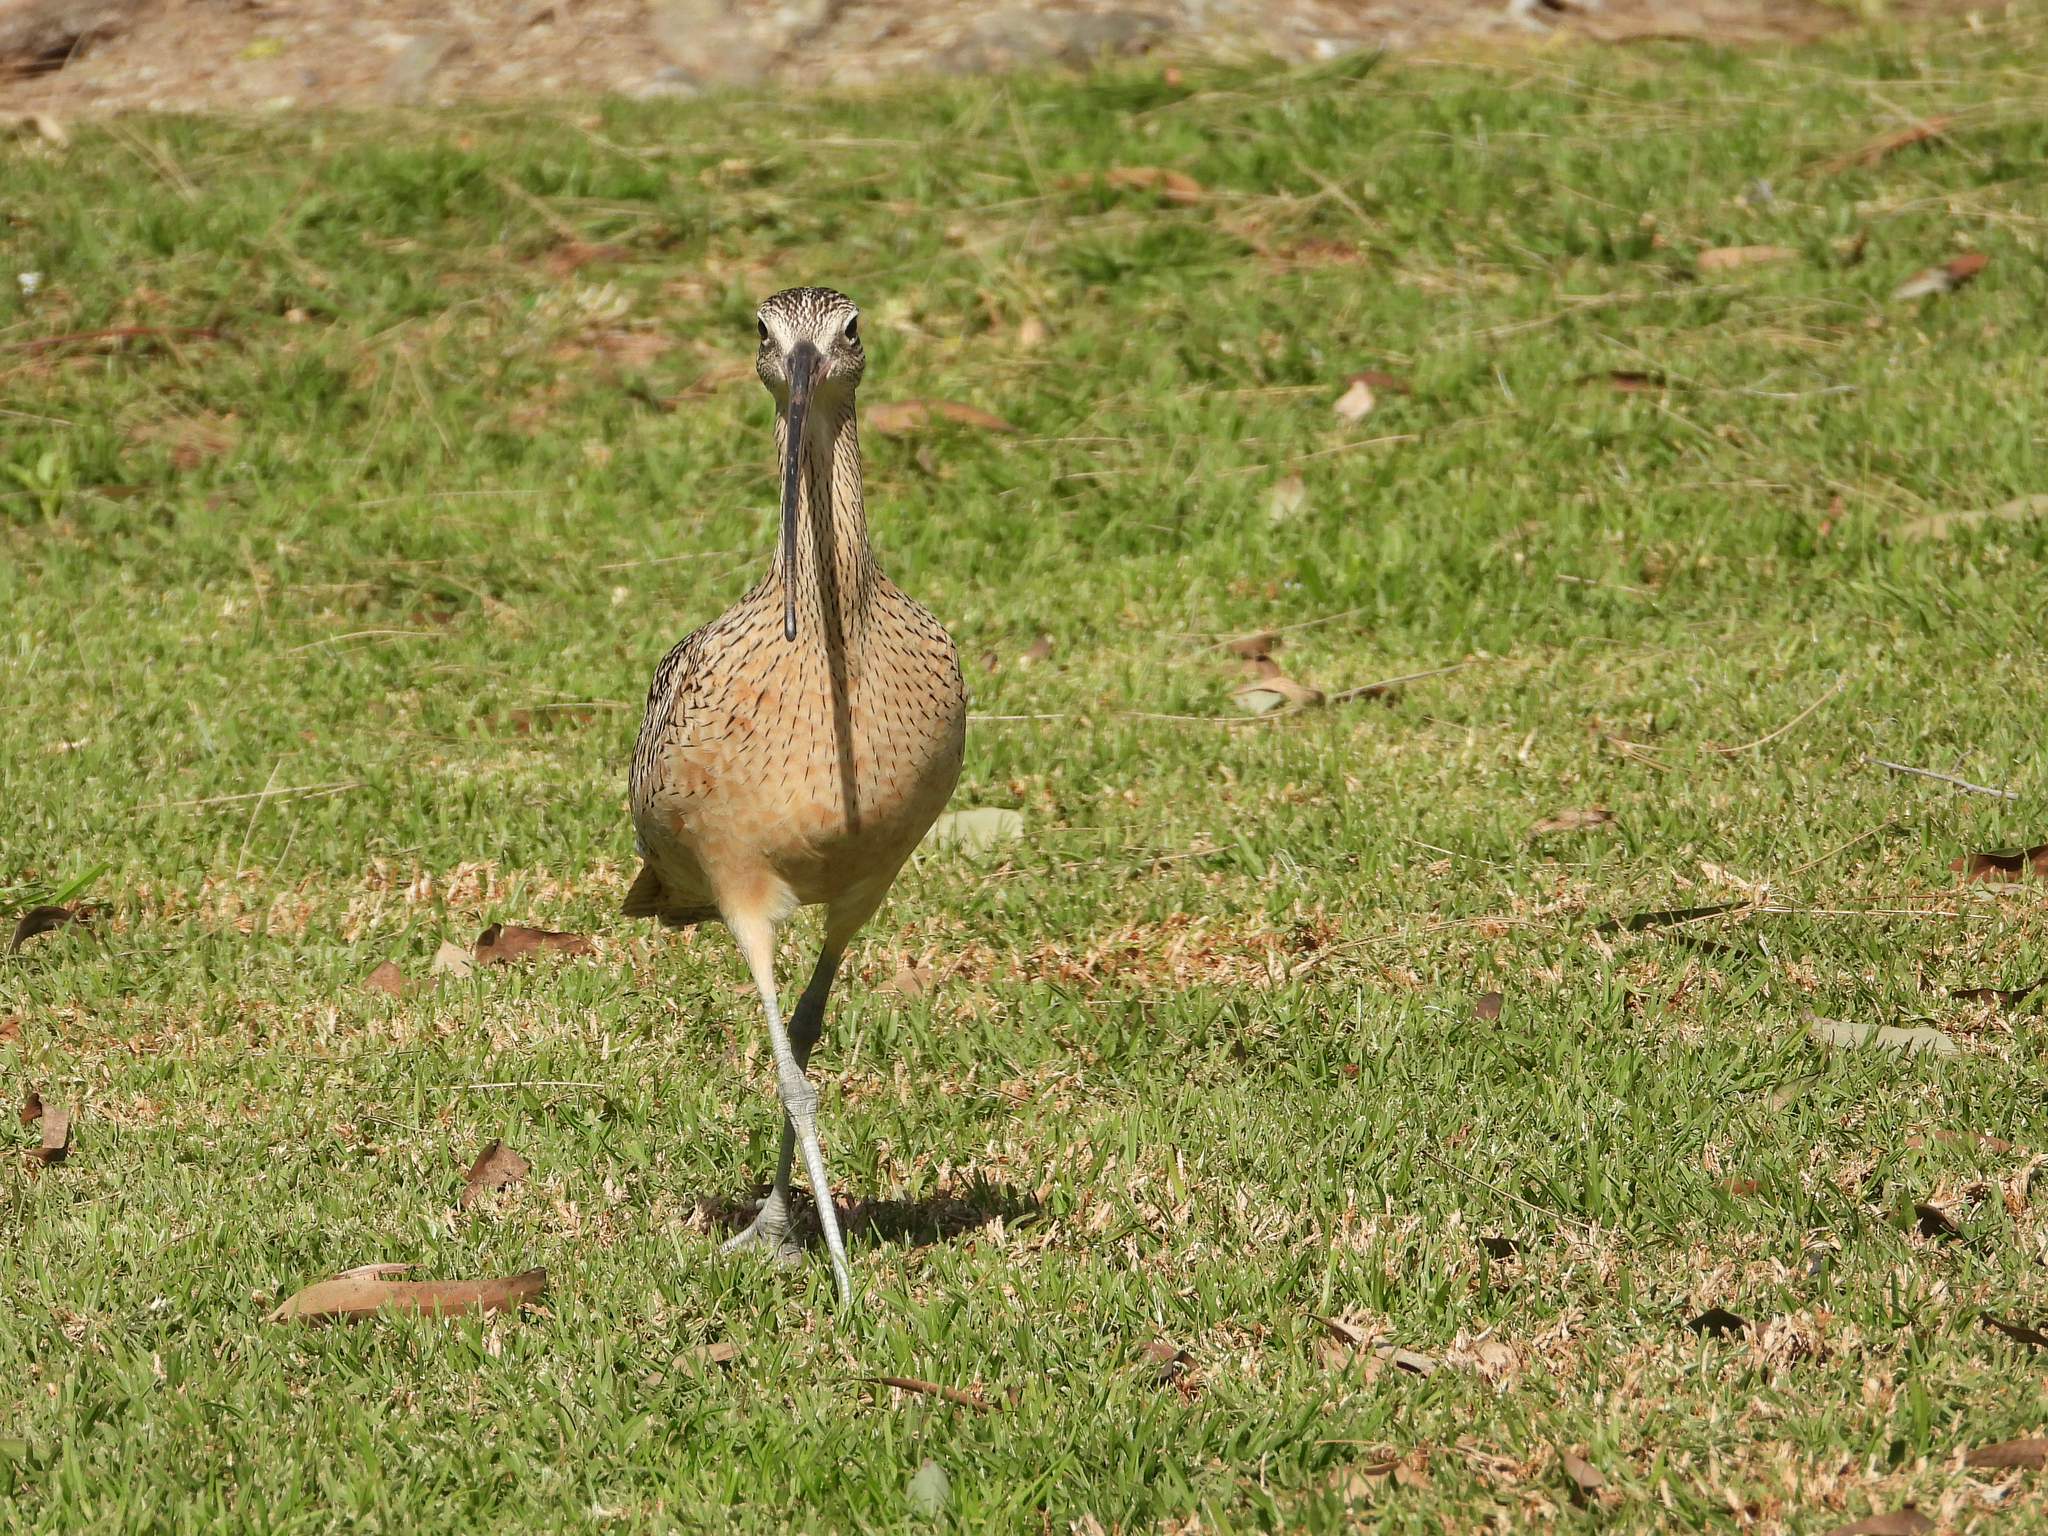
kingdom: Animalia
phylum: Chordata
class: Aves
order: Charadriiformes
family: Scolopacidae
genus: Numenius
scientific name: Numenius americanus
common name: Long-billed curlew
